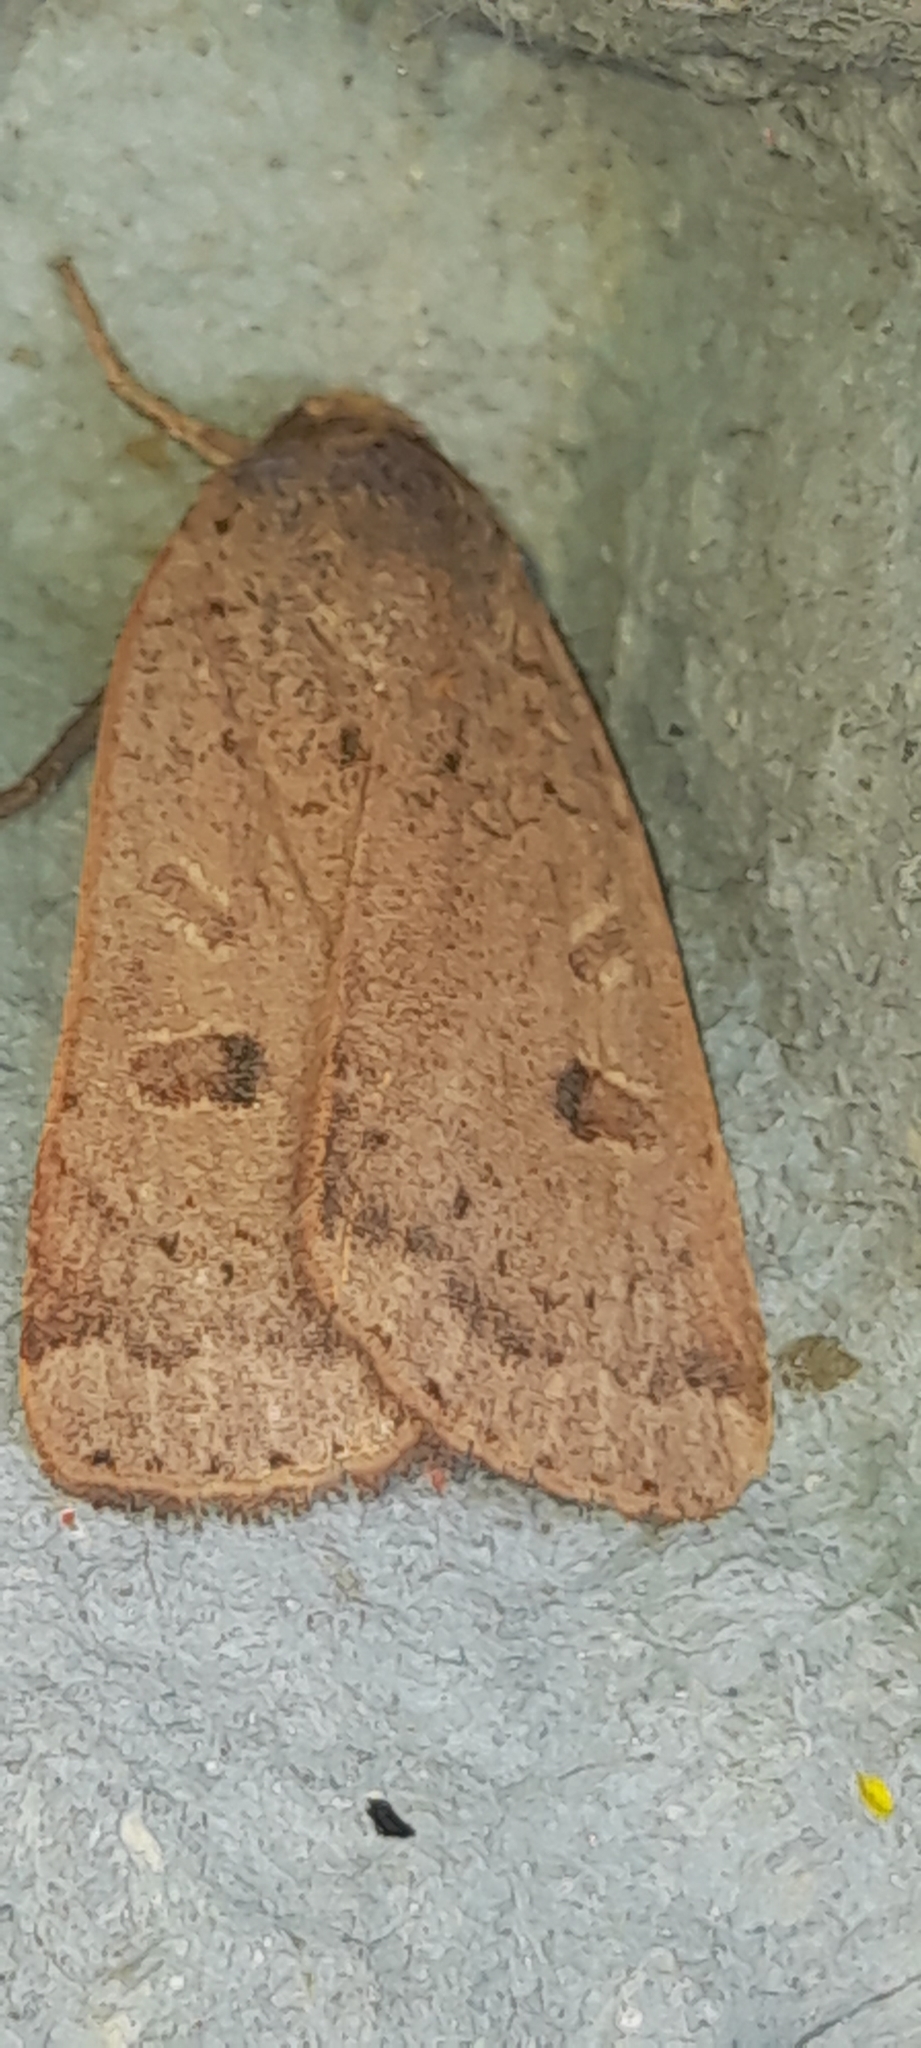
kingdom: Animalia
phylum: Arthropoda
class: Insecta
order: Lepidoptera
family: Noctuidae
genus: Noctua
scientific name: Noctua comes
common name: Lesser yellow underwing
